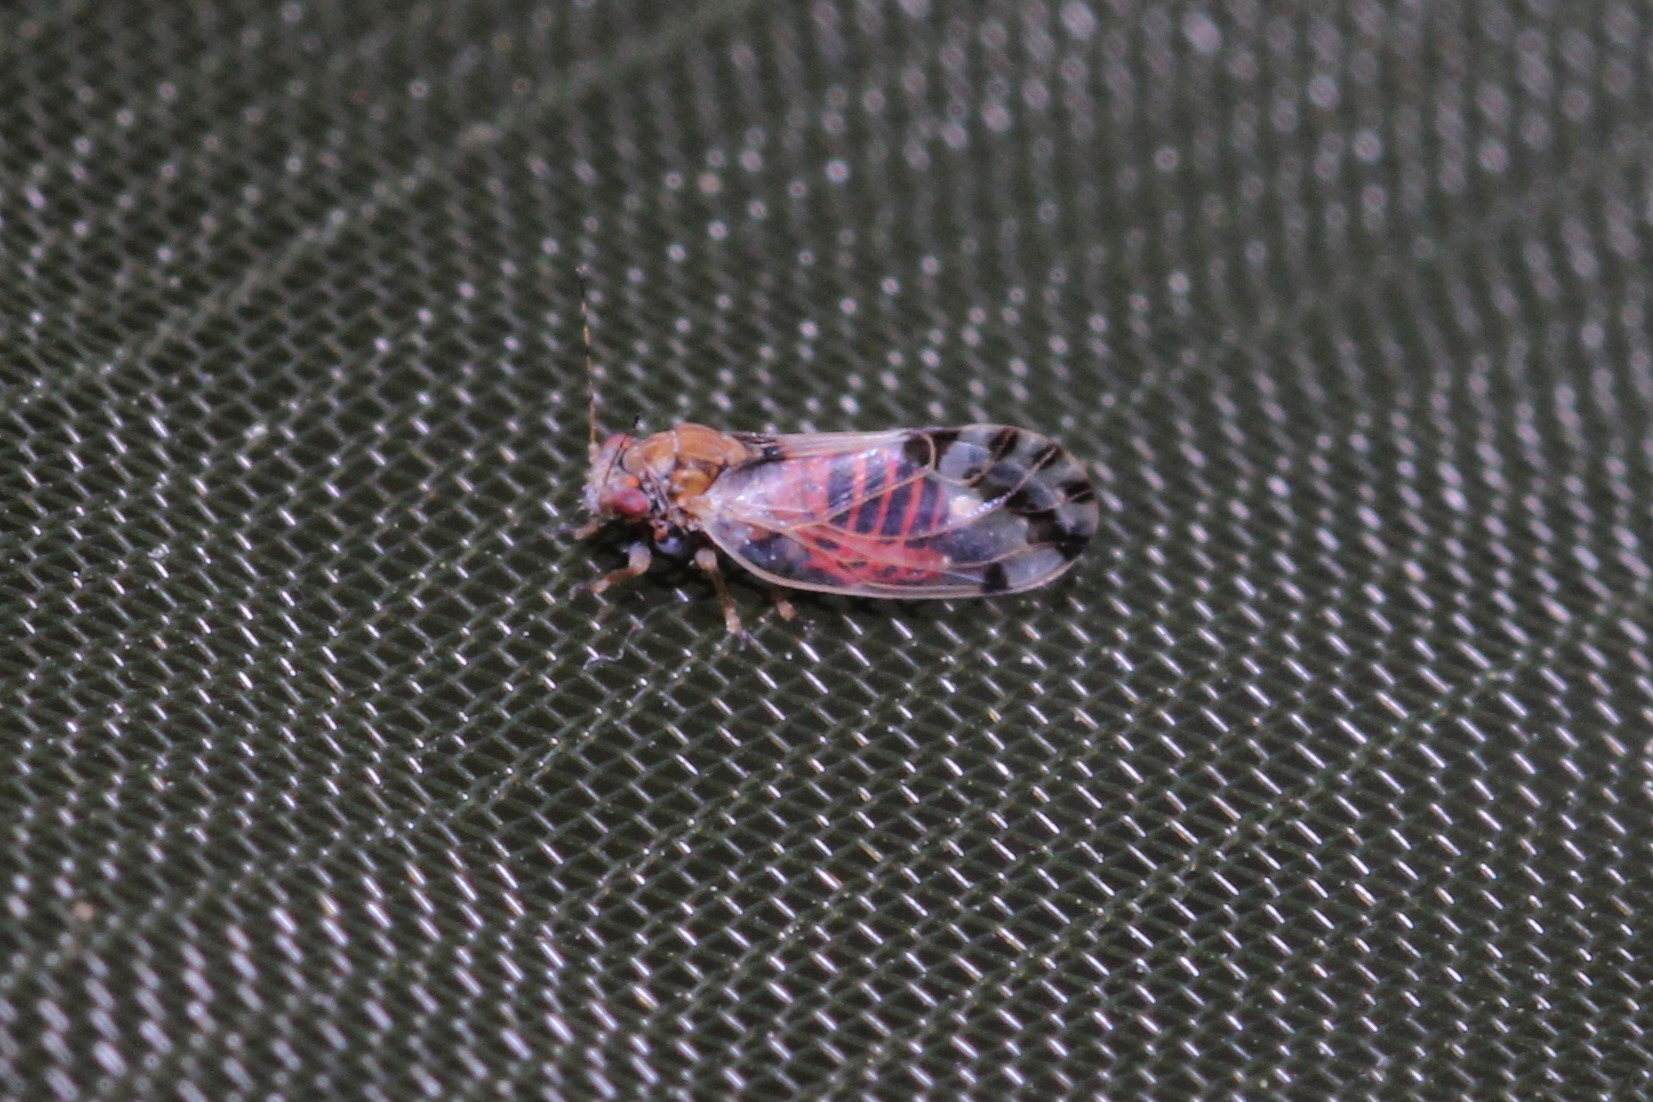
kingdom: Animalia
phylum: Arthropoda
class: Insecta
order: Hemiptera
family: Psyllidae
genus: Cacopsylla
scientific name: Cacopsylla pulchella
